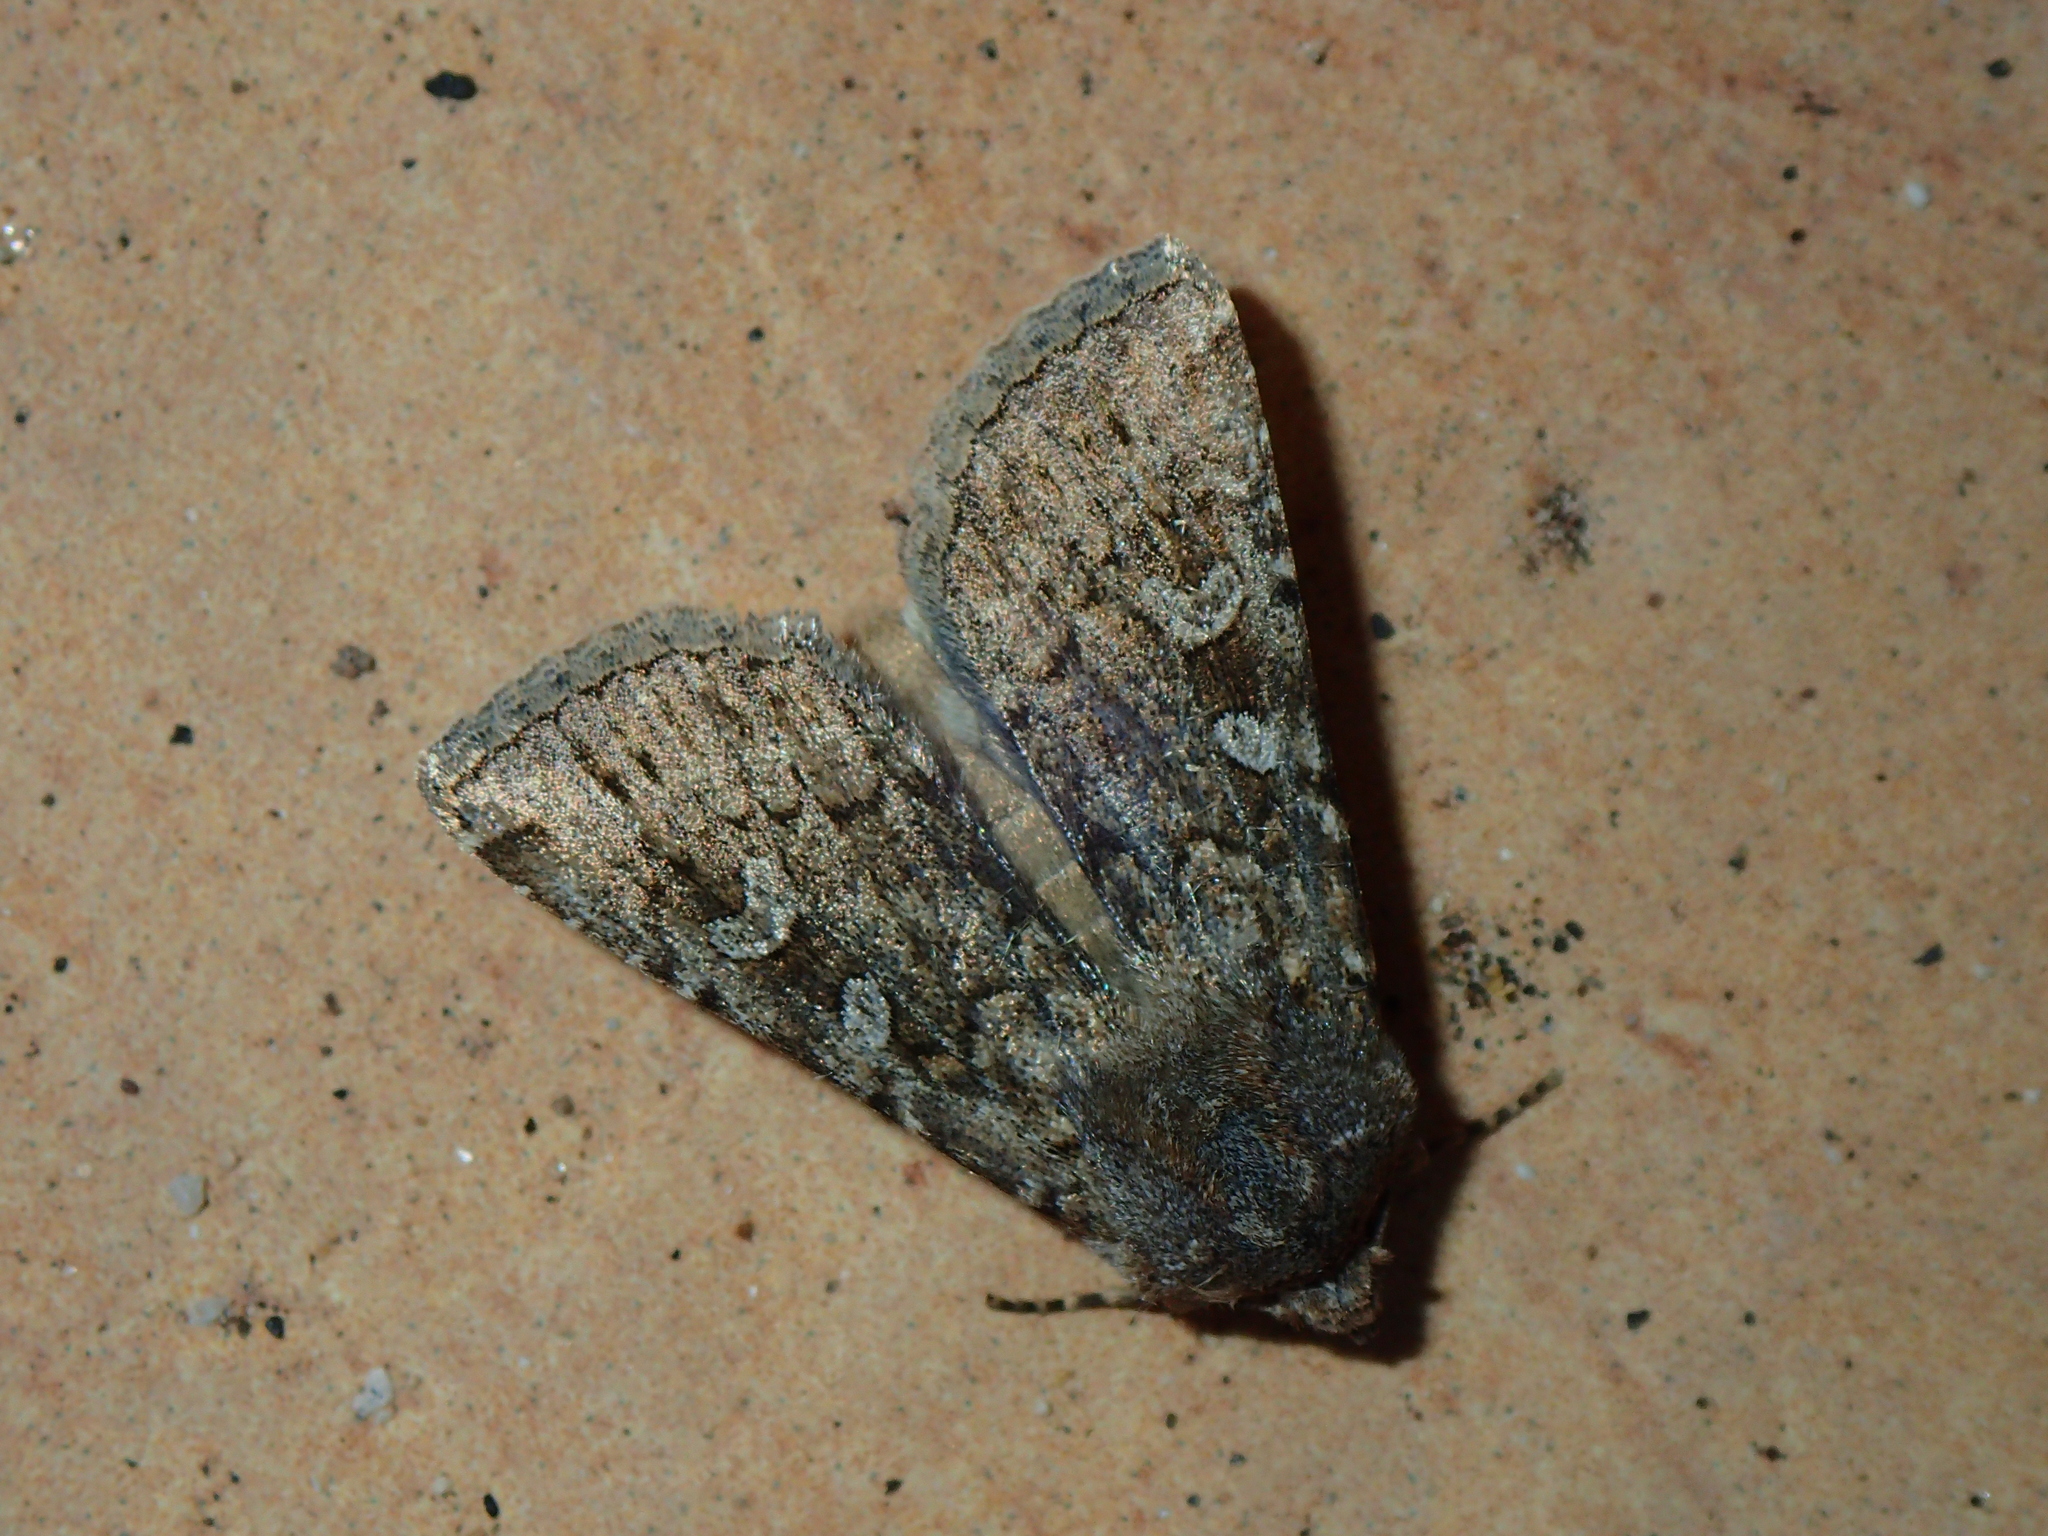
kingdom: Animalia
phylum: Arthropoda
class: Insecta
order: Lepidoptera
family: Noctuidae
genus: Euxoa
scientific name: Euxoa canariensis
